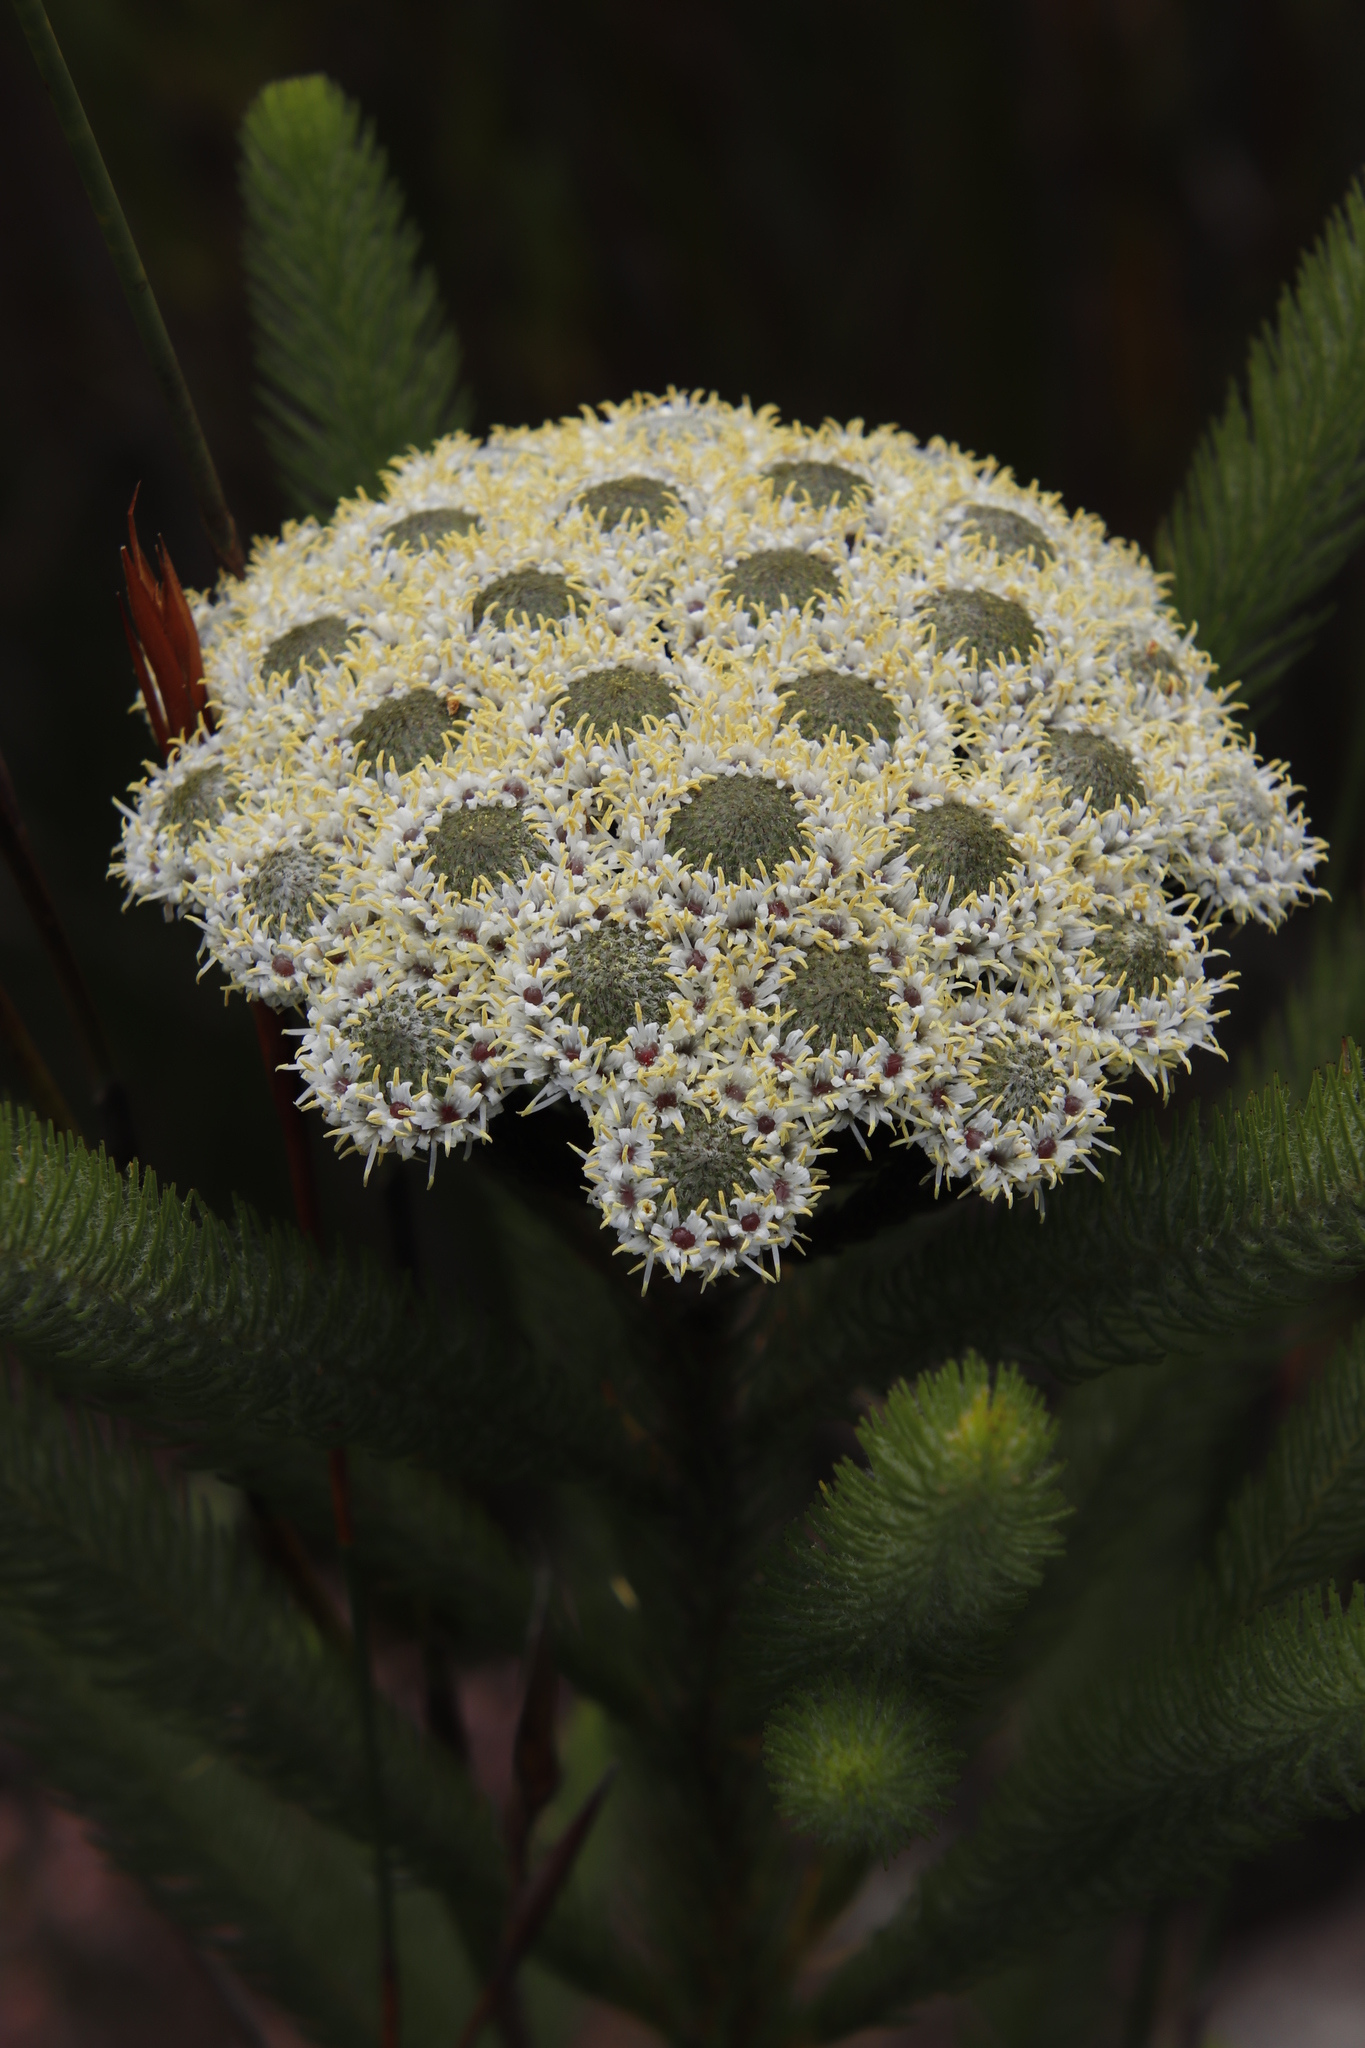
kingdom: Plantae
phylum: Tracheophyta
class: Magnoliopsida
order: Bruniales
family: Bruniaceae
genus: Berzelia
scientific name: Berzelia albiflora
